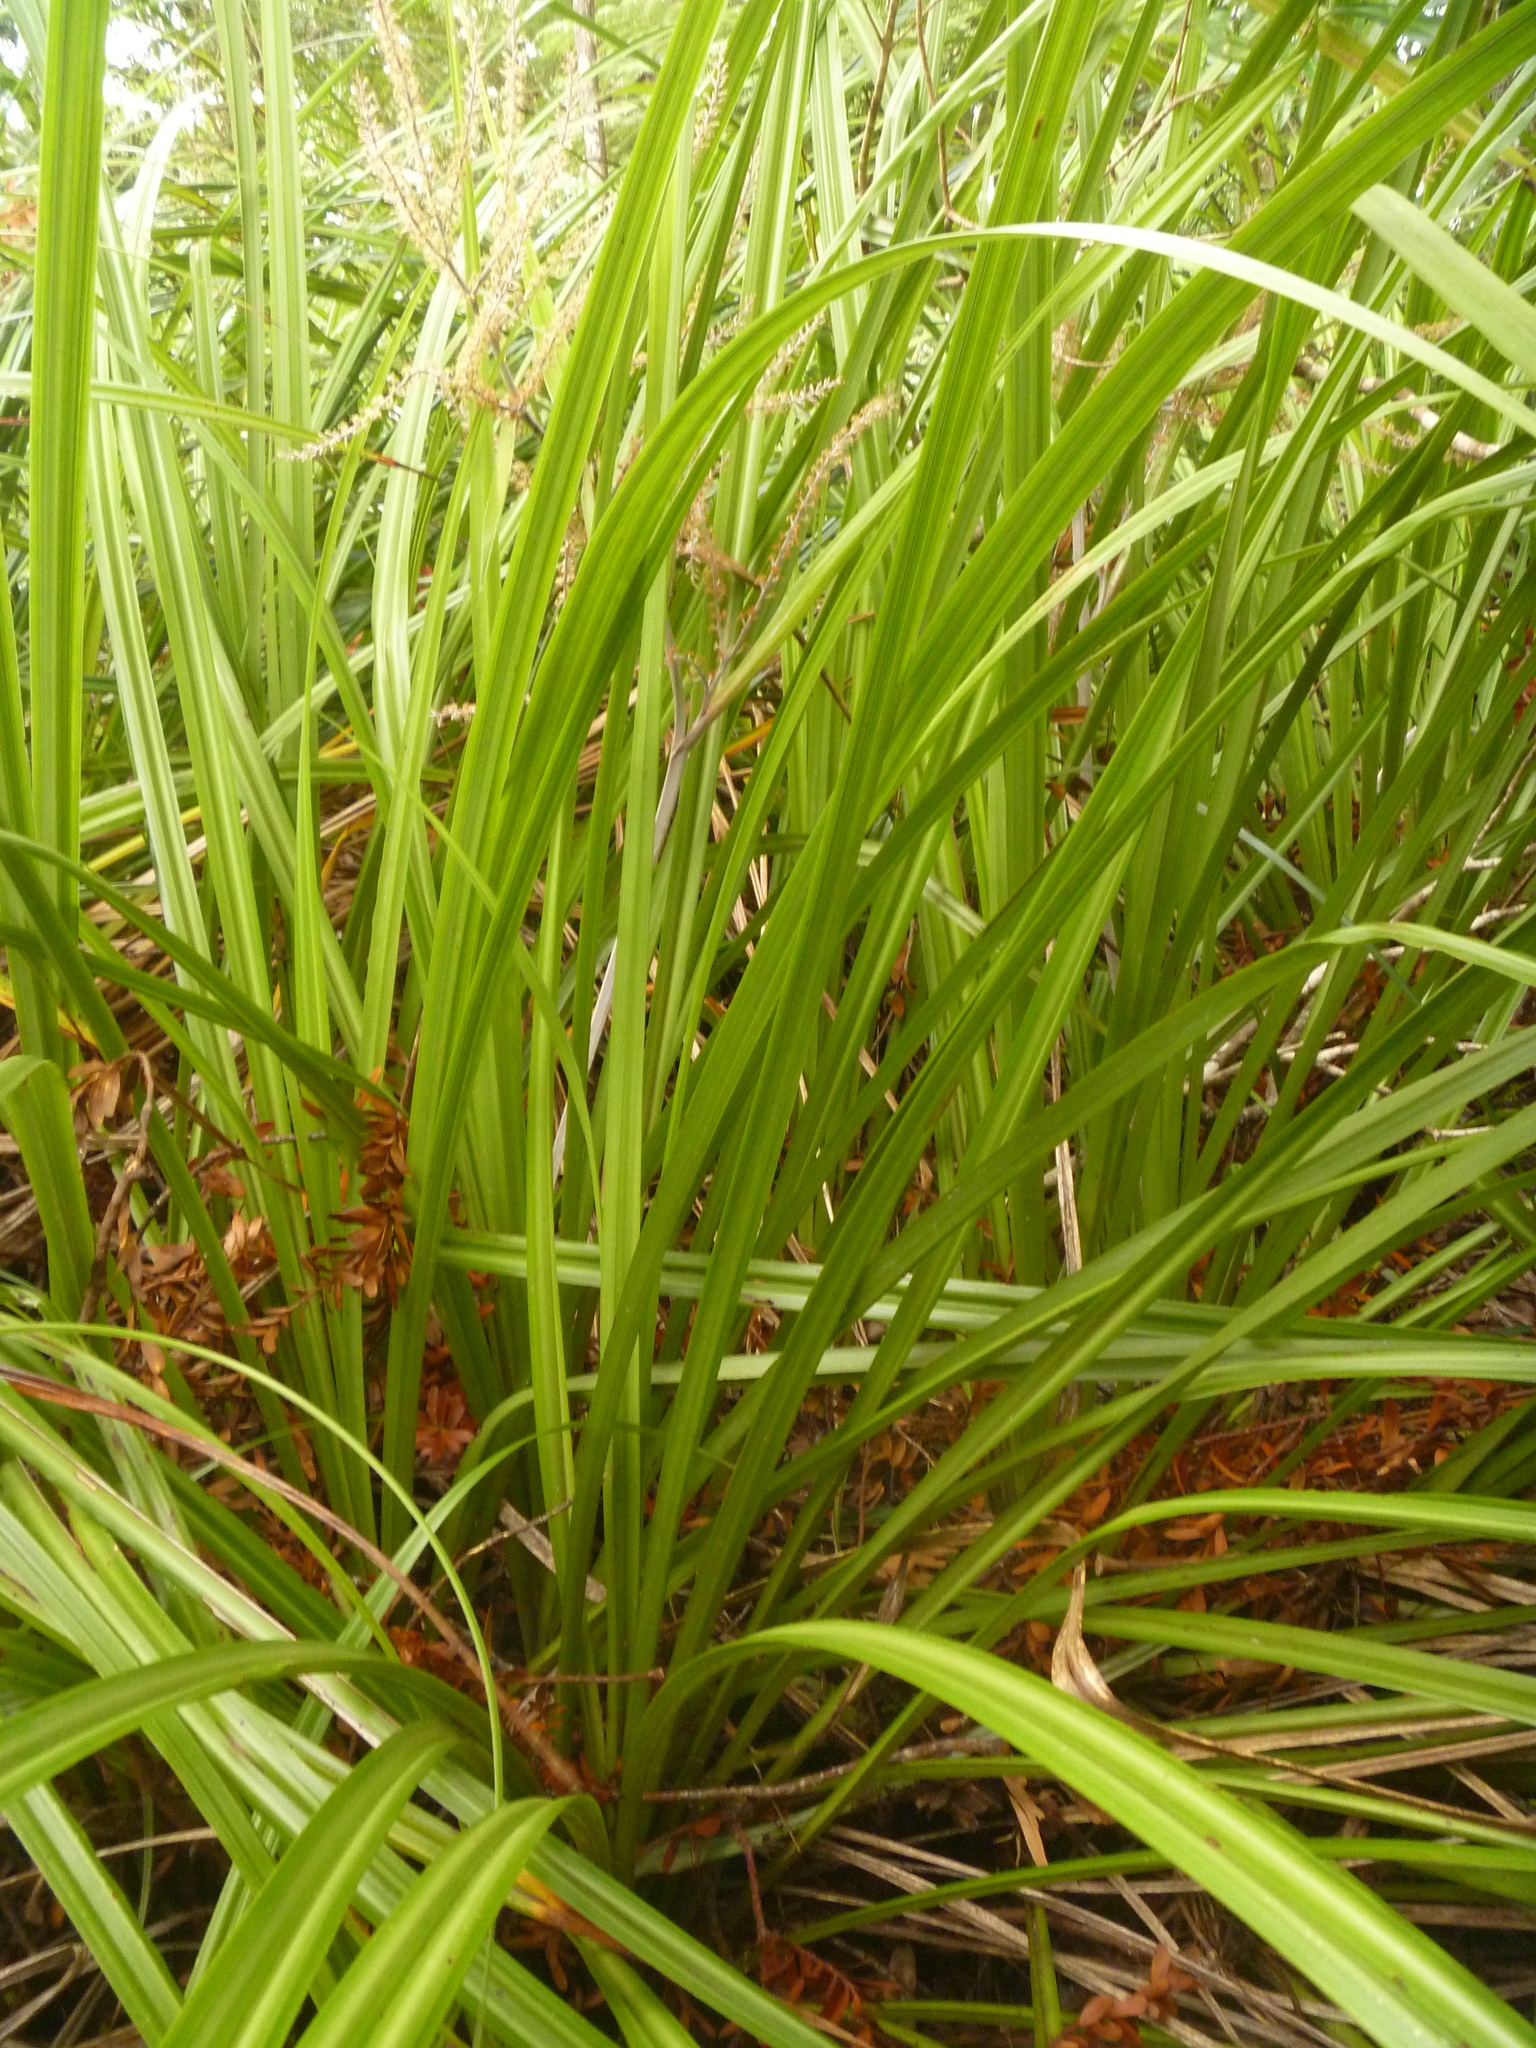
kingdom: Plantae
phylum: Tracheophyta
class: Liliopsida
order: Asparagales
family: Asteliaceae
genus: Astelia
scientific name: Astelia trinervia
